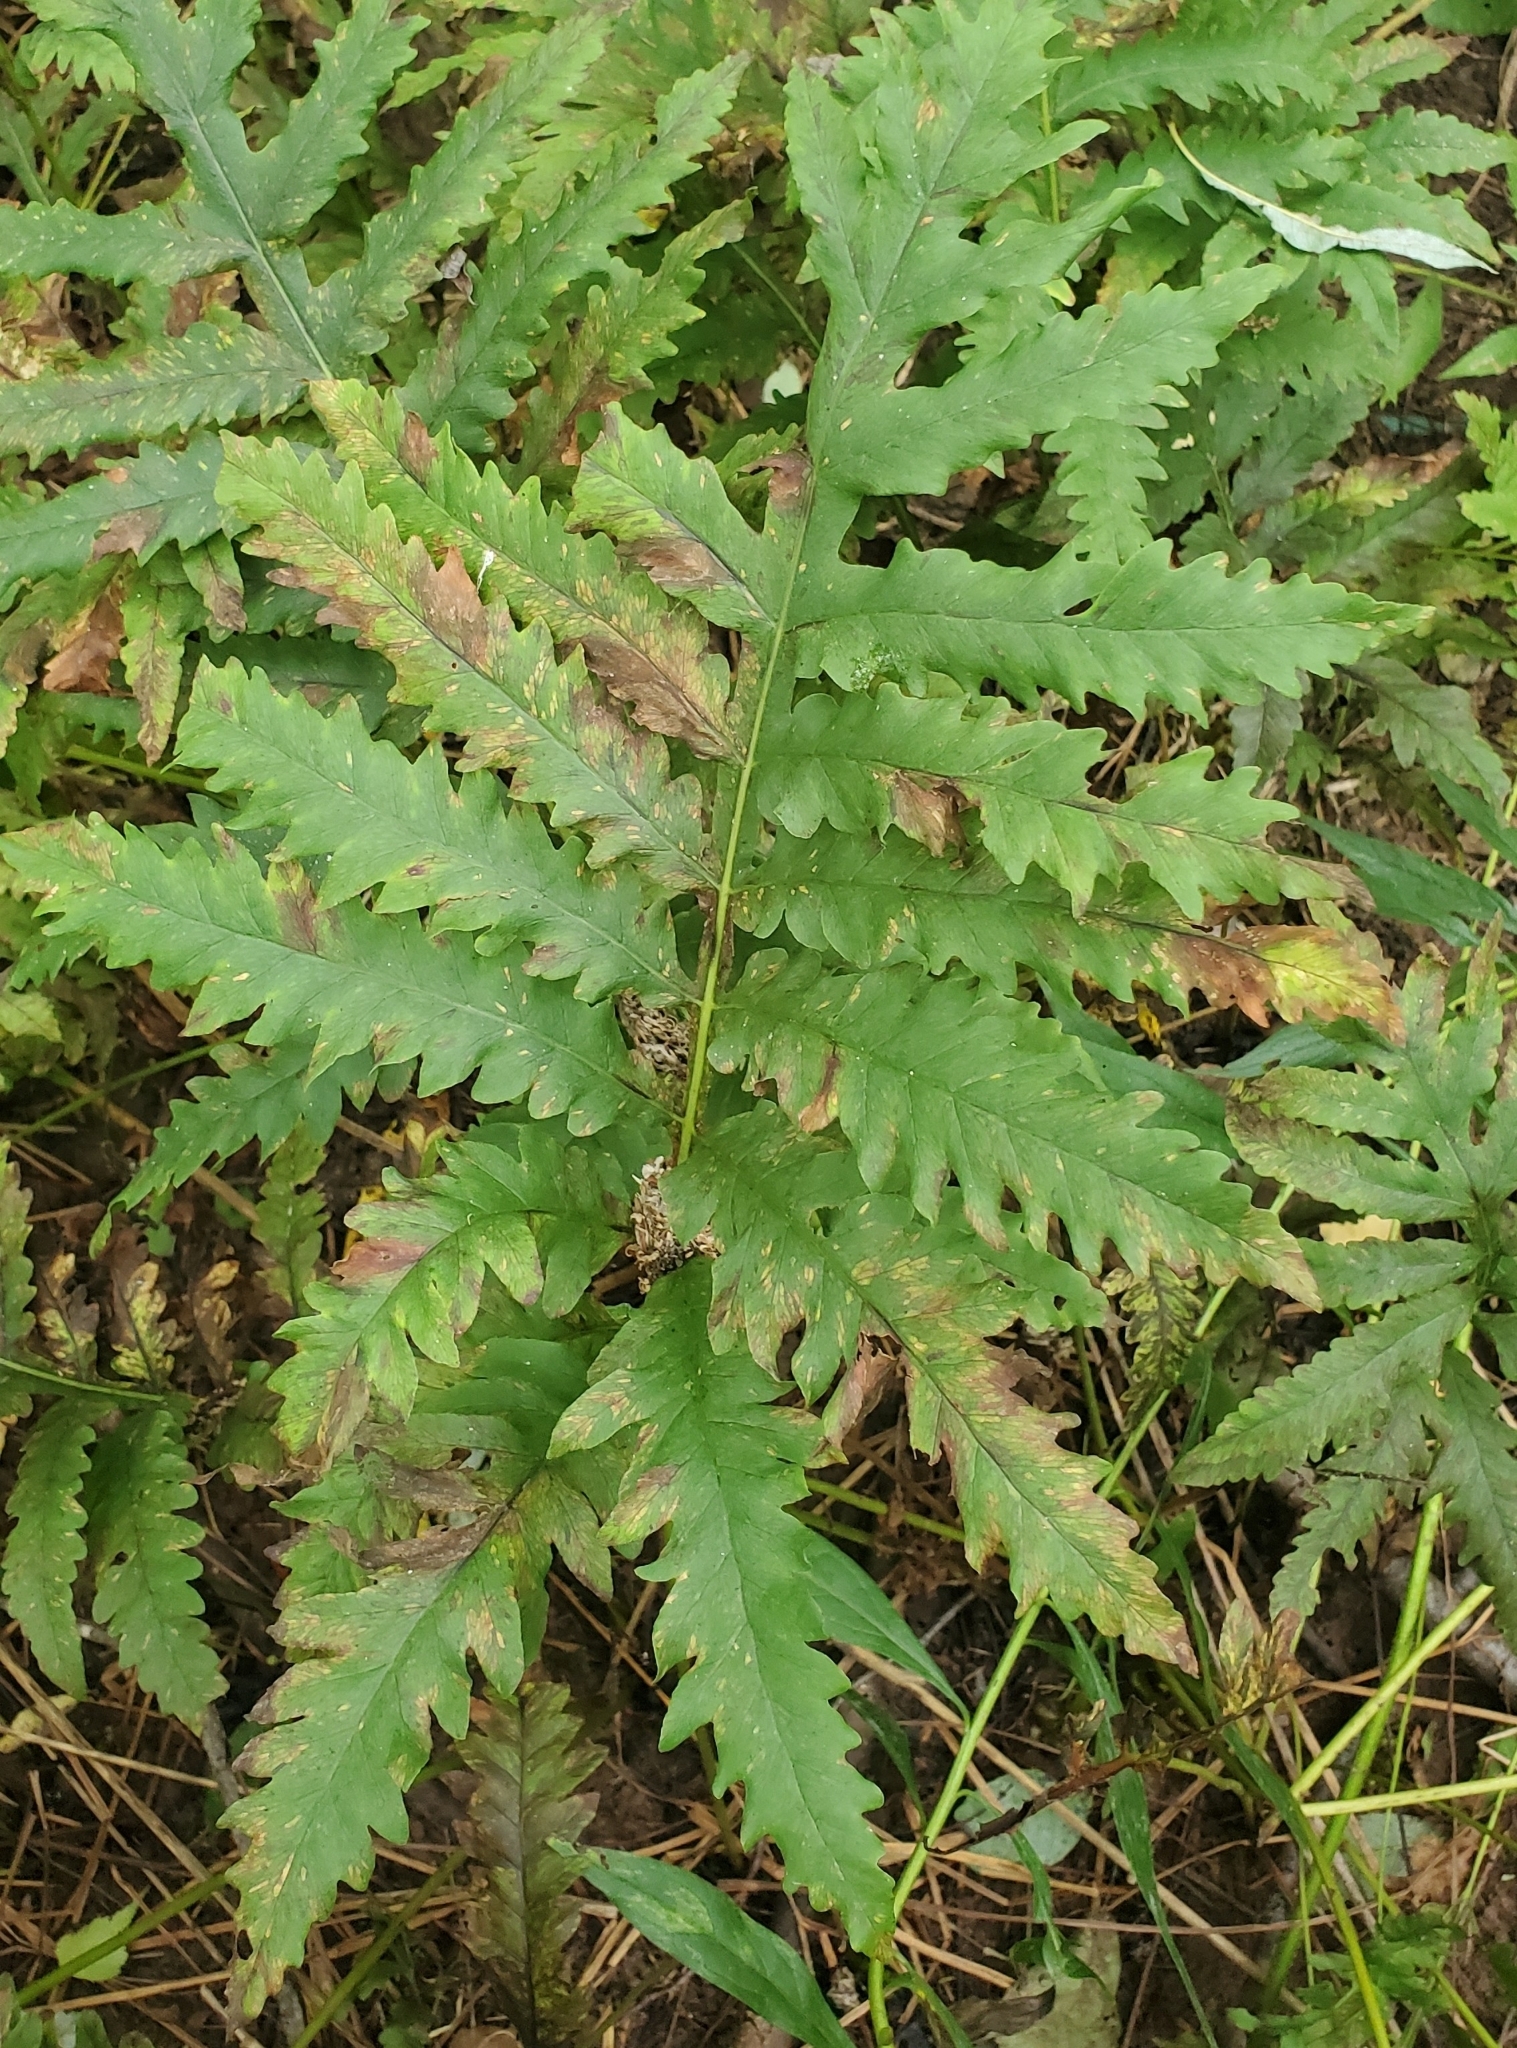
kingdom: Plantae
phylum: Tracheophyta
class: Polypodiopsida
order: Polypodiales
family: Onocleaceae
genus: Onoclea
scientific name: Onoclea sensibilis
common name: Sensitive fern
